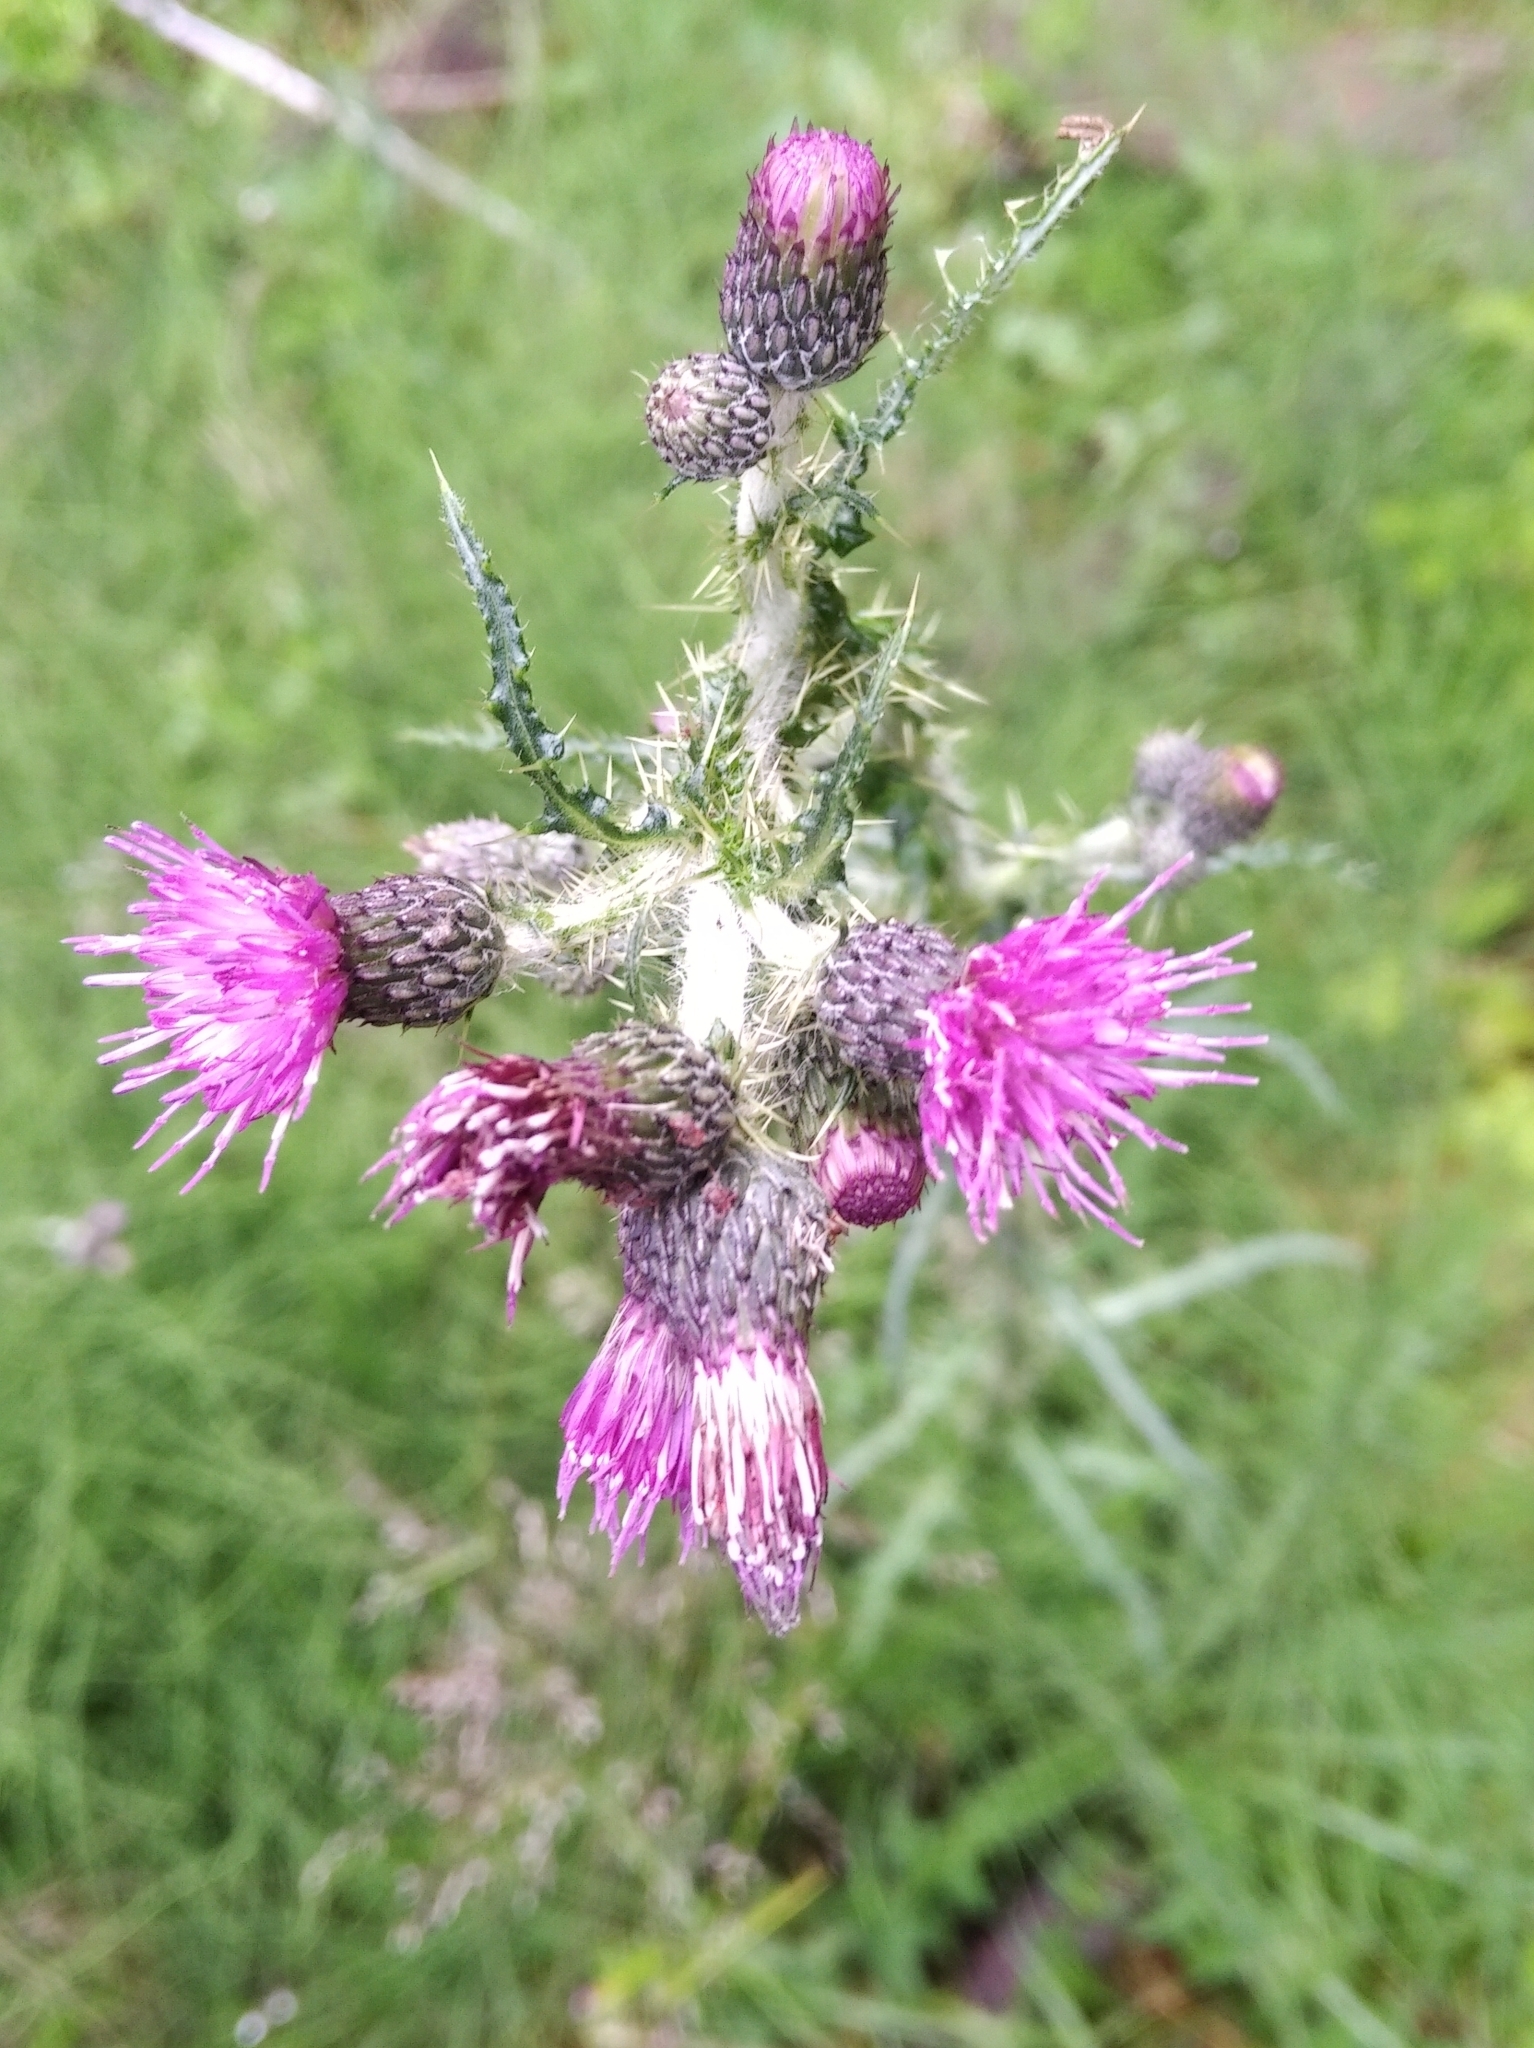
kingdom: Plantae
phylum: Tracheophyta
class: Magnoliopsida
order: Asterales
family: Asteraceae
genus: Cirsium
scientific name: Cirsium palustre
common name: Marsh thistle
